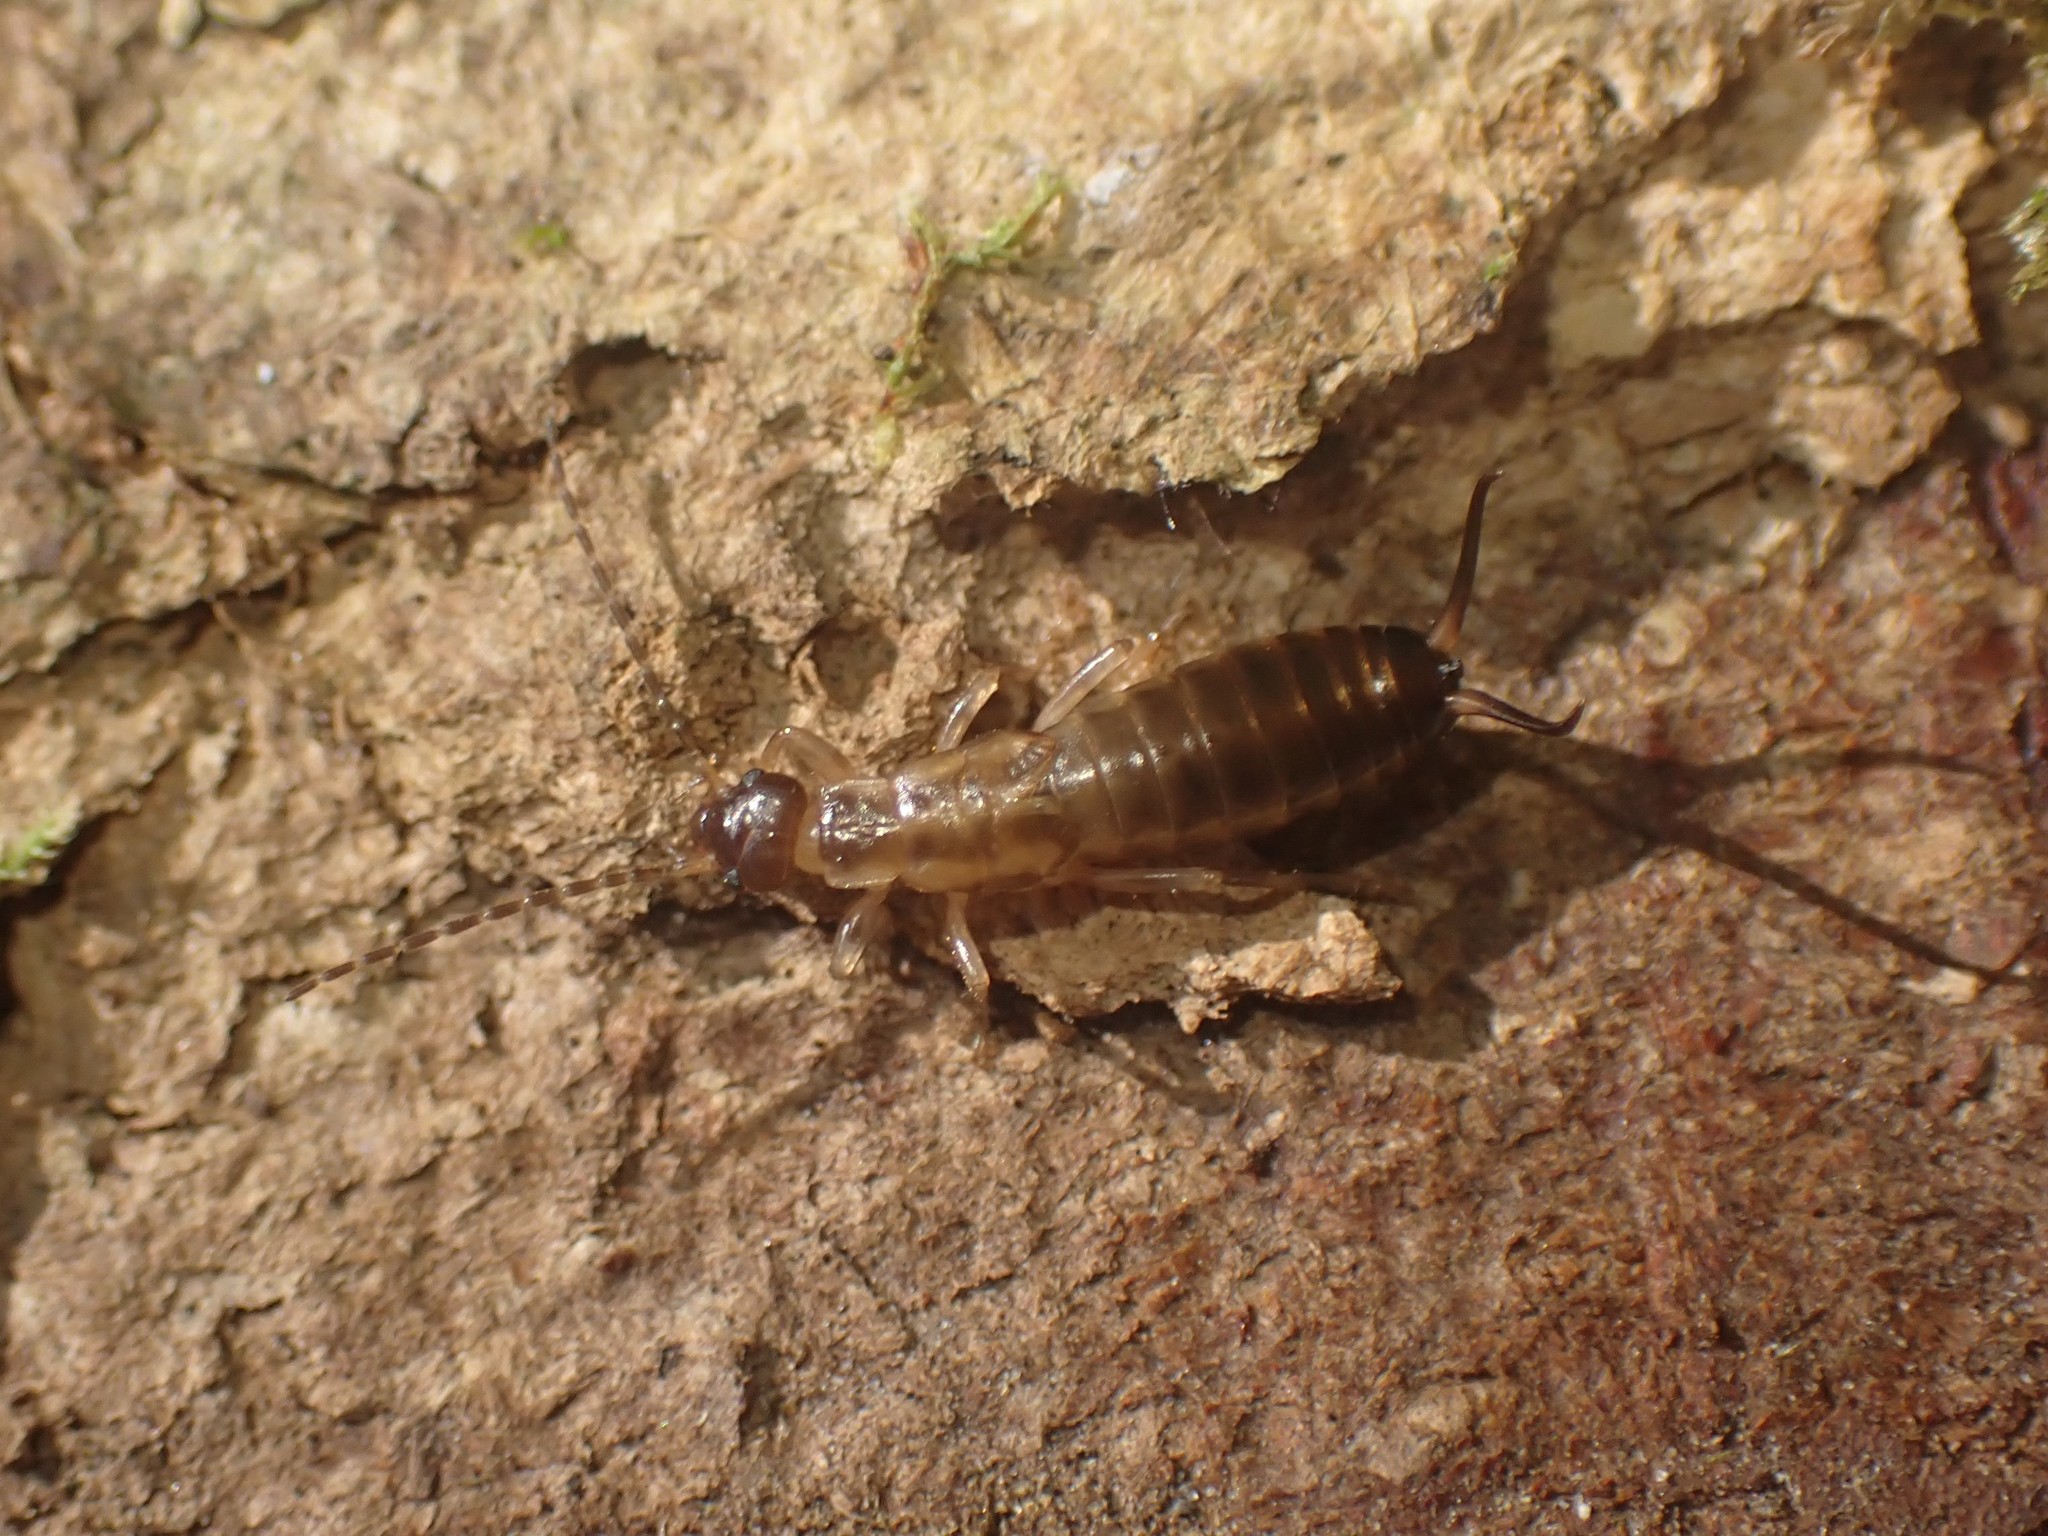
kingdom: Animalia
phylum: Arthropoda
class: Insecta
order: Dermaptera
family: Forficulidae
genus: Forficula
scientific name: Forficula
